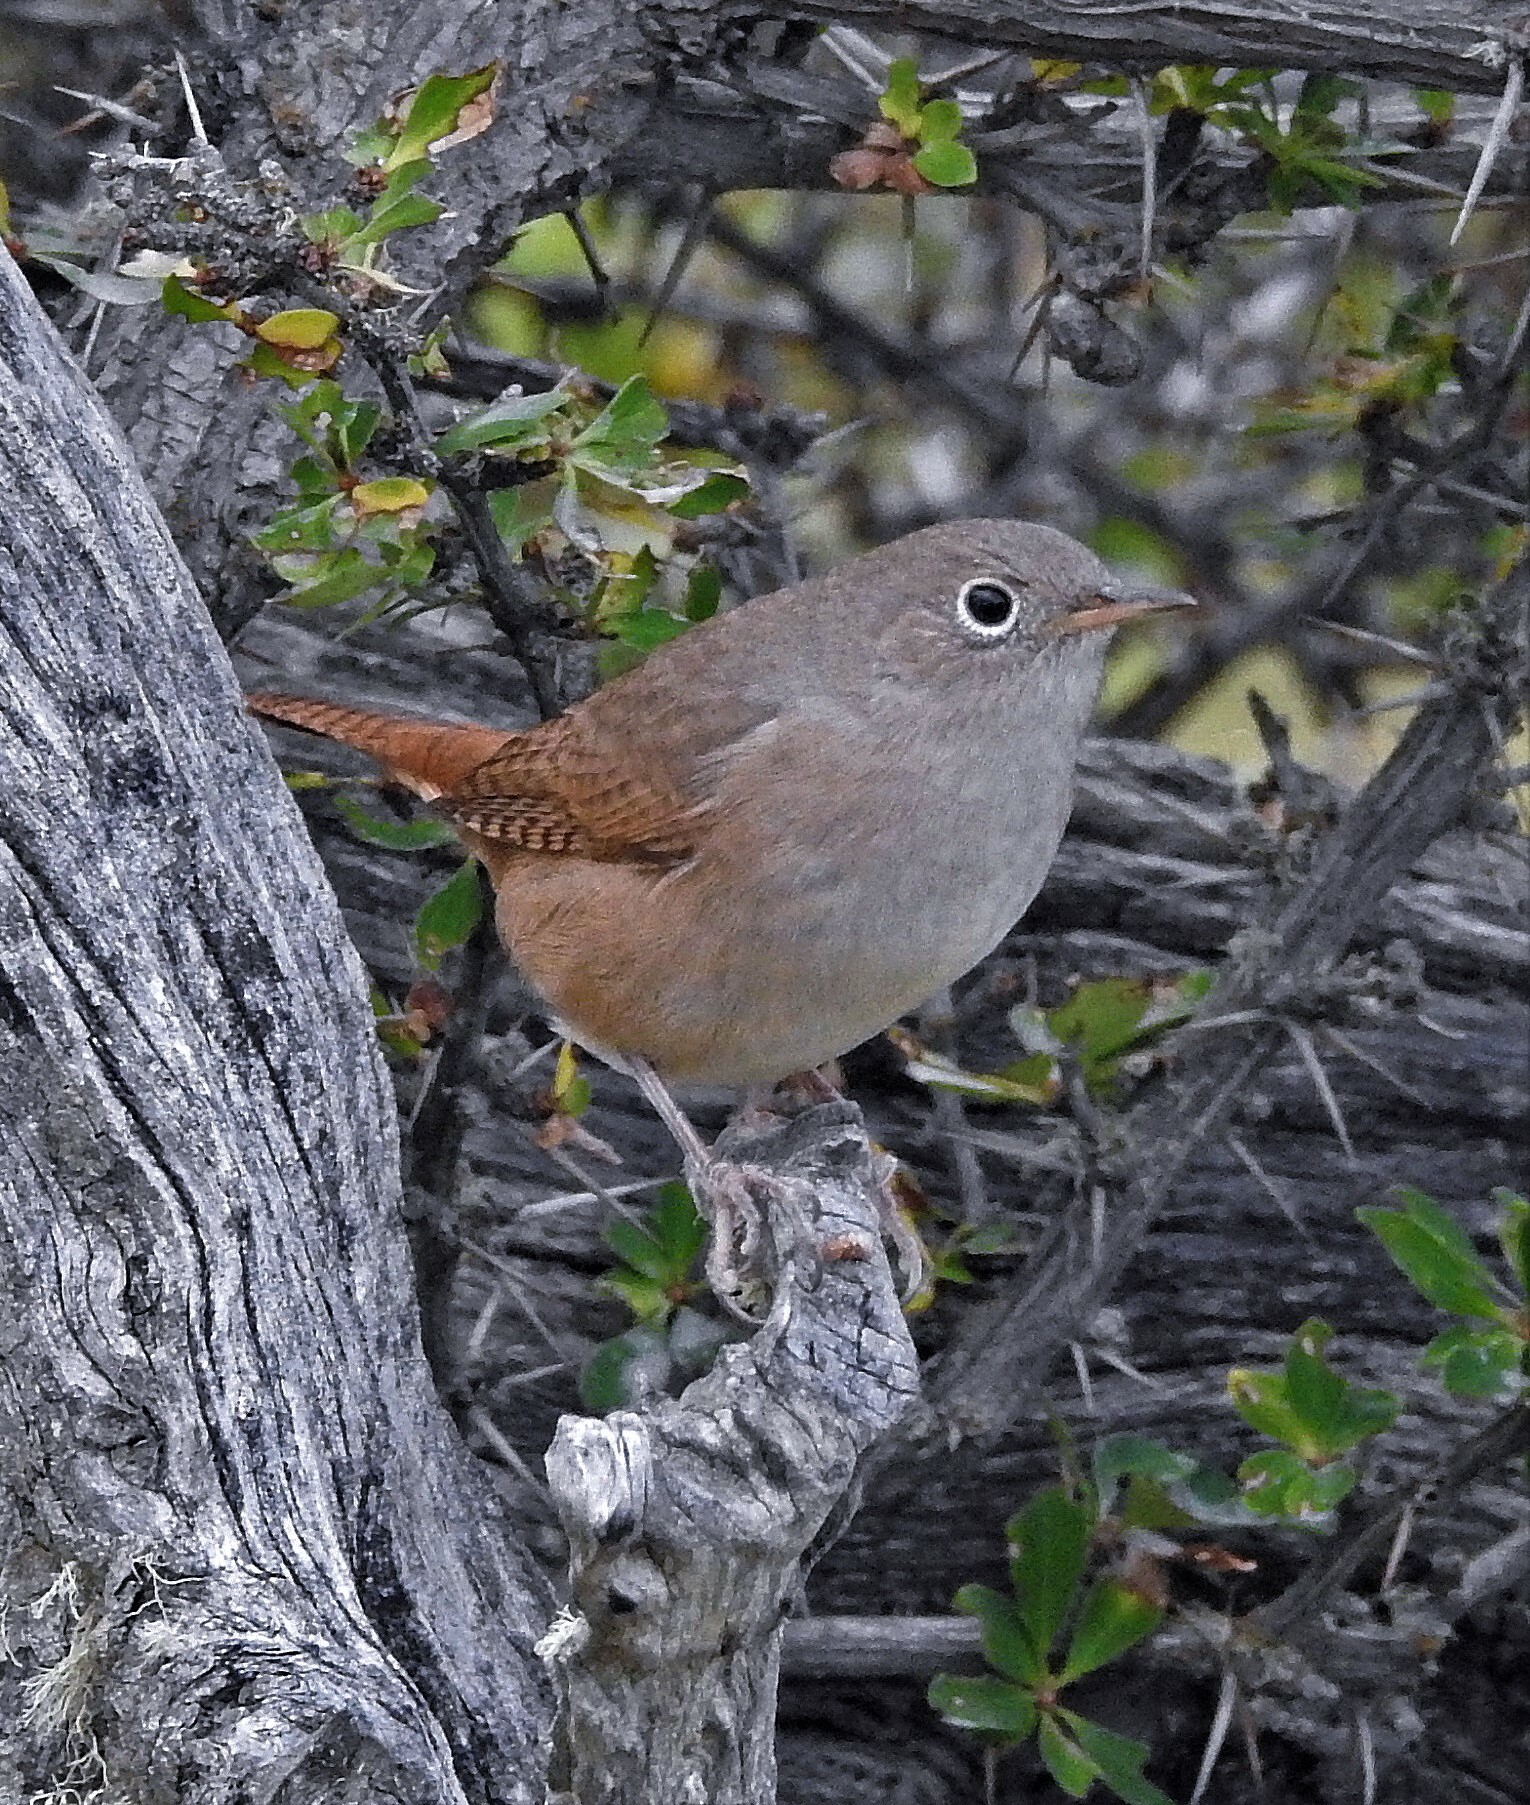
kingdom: Animalia
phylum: Chordata
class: Aves
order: Passeriformes
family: Troglodytidae
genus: Troglodytes
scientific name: Troglodytes aedon
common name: House wren
